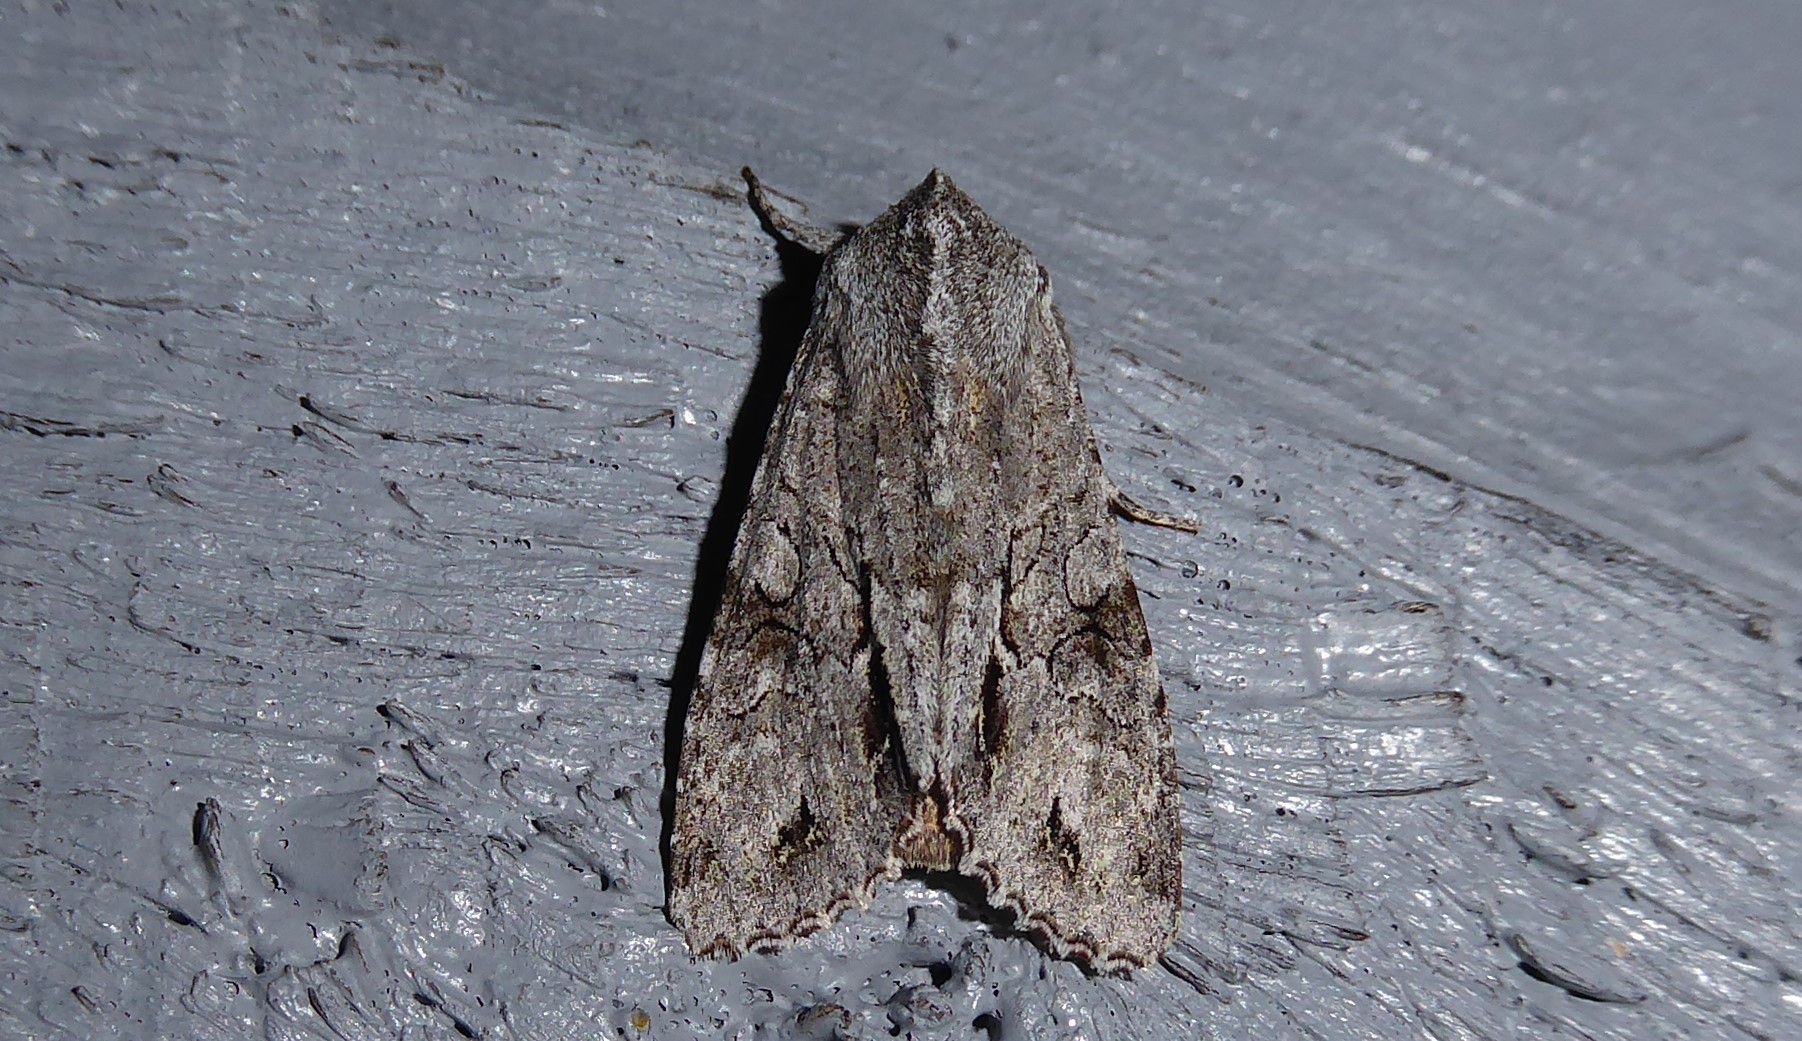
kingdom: Animalia
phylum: Arthropoda
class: Insecta
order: Lepidoptera
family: Noctuidae
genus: Ichneutica
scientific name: Ichneutica
